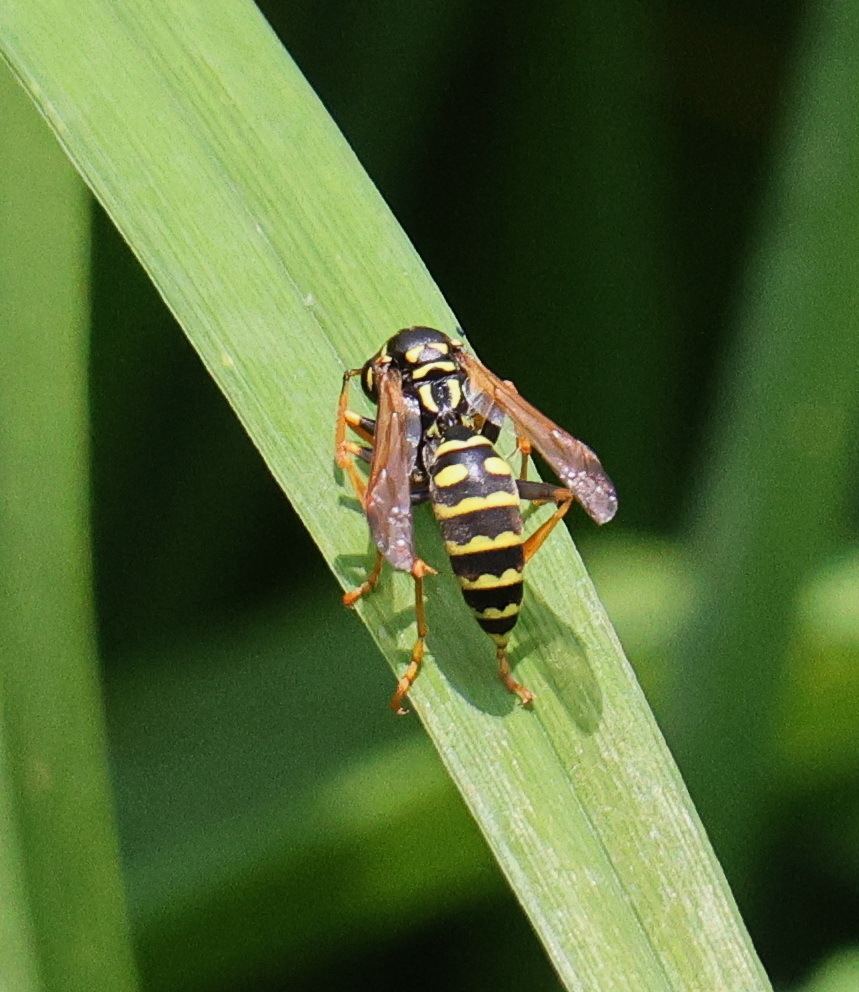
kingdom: Animalia
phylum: Arthropoda
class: Insecta
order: Hymenoptera
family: Eumenidae
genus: Polistes
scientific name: Polistes dominula
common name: Paper wasp
